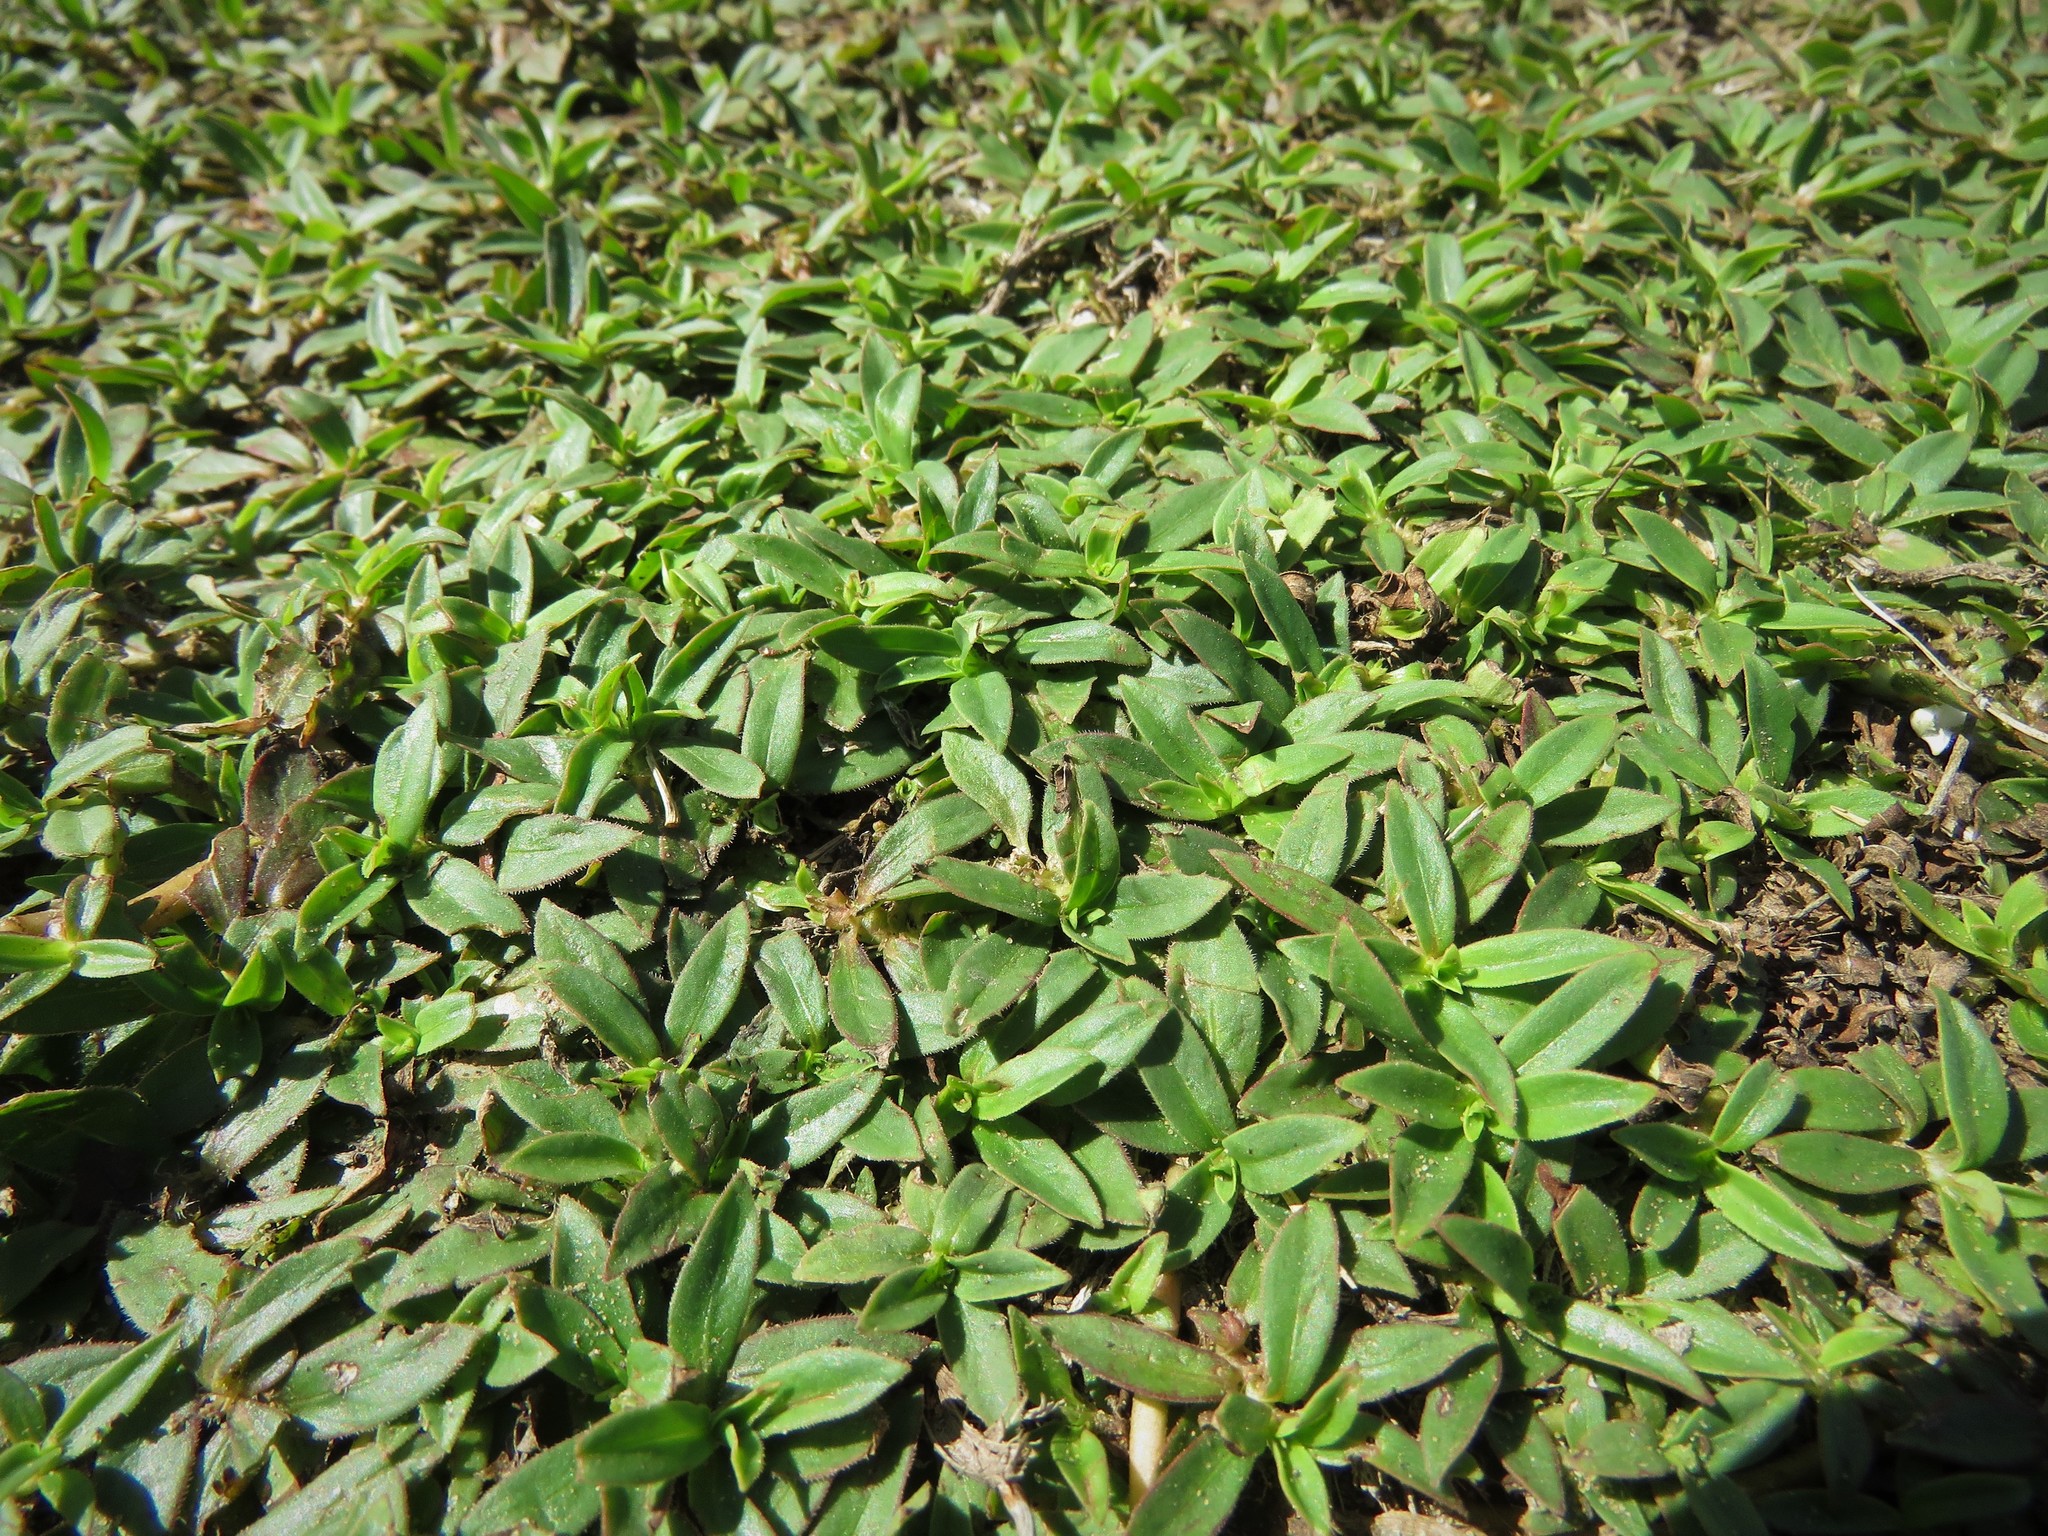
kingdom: Plantae
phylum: Tracheophyta
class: Magnoliopsida
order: Gentianales
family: Rubiaceae
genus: Diodia
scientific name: Diodia virginiana
